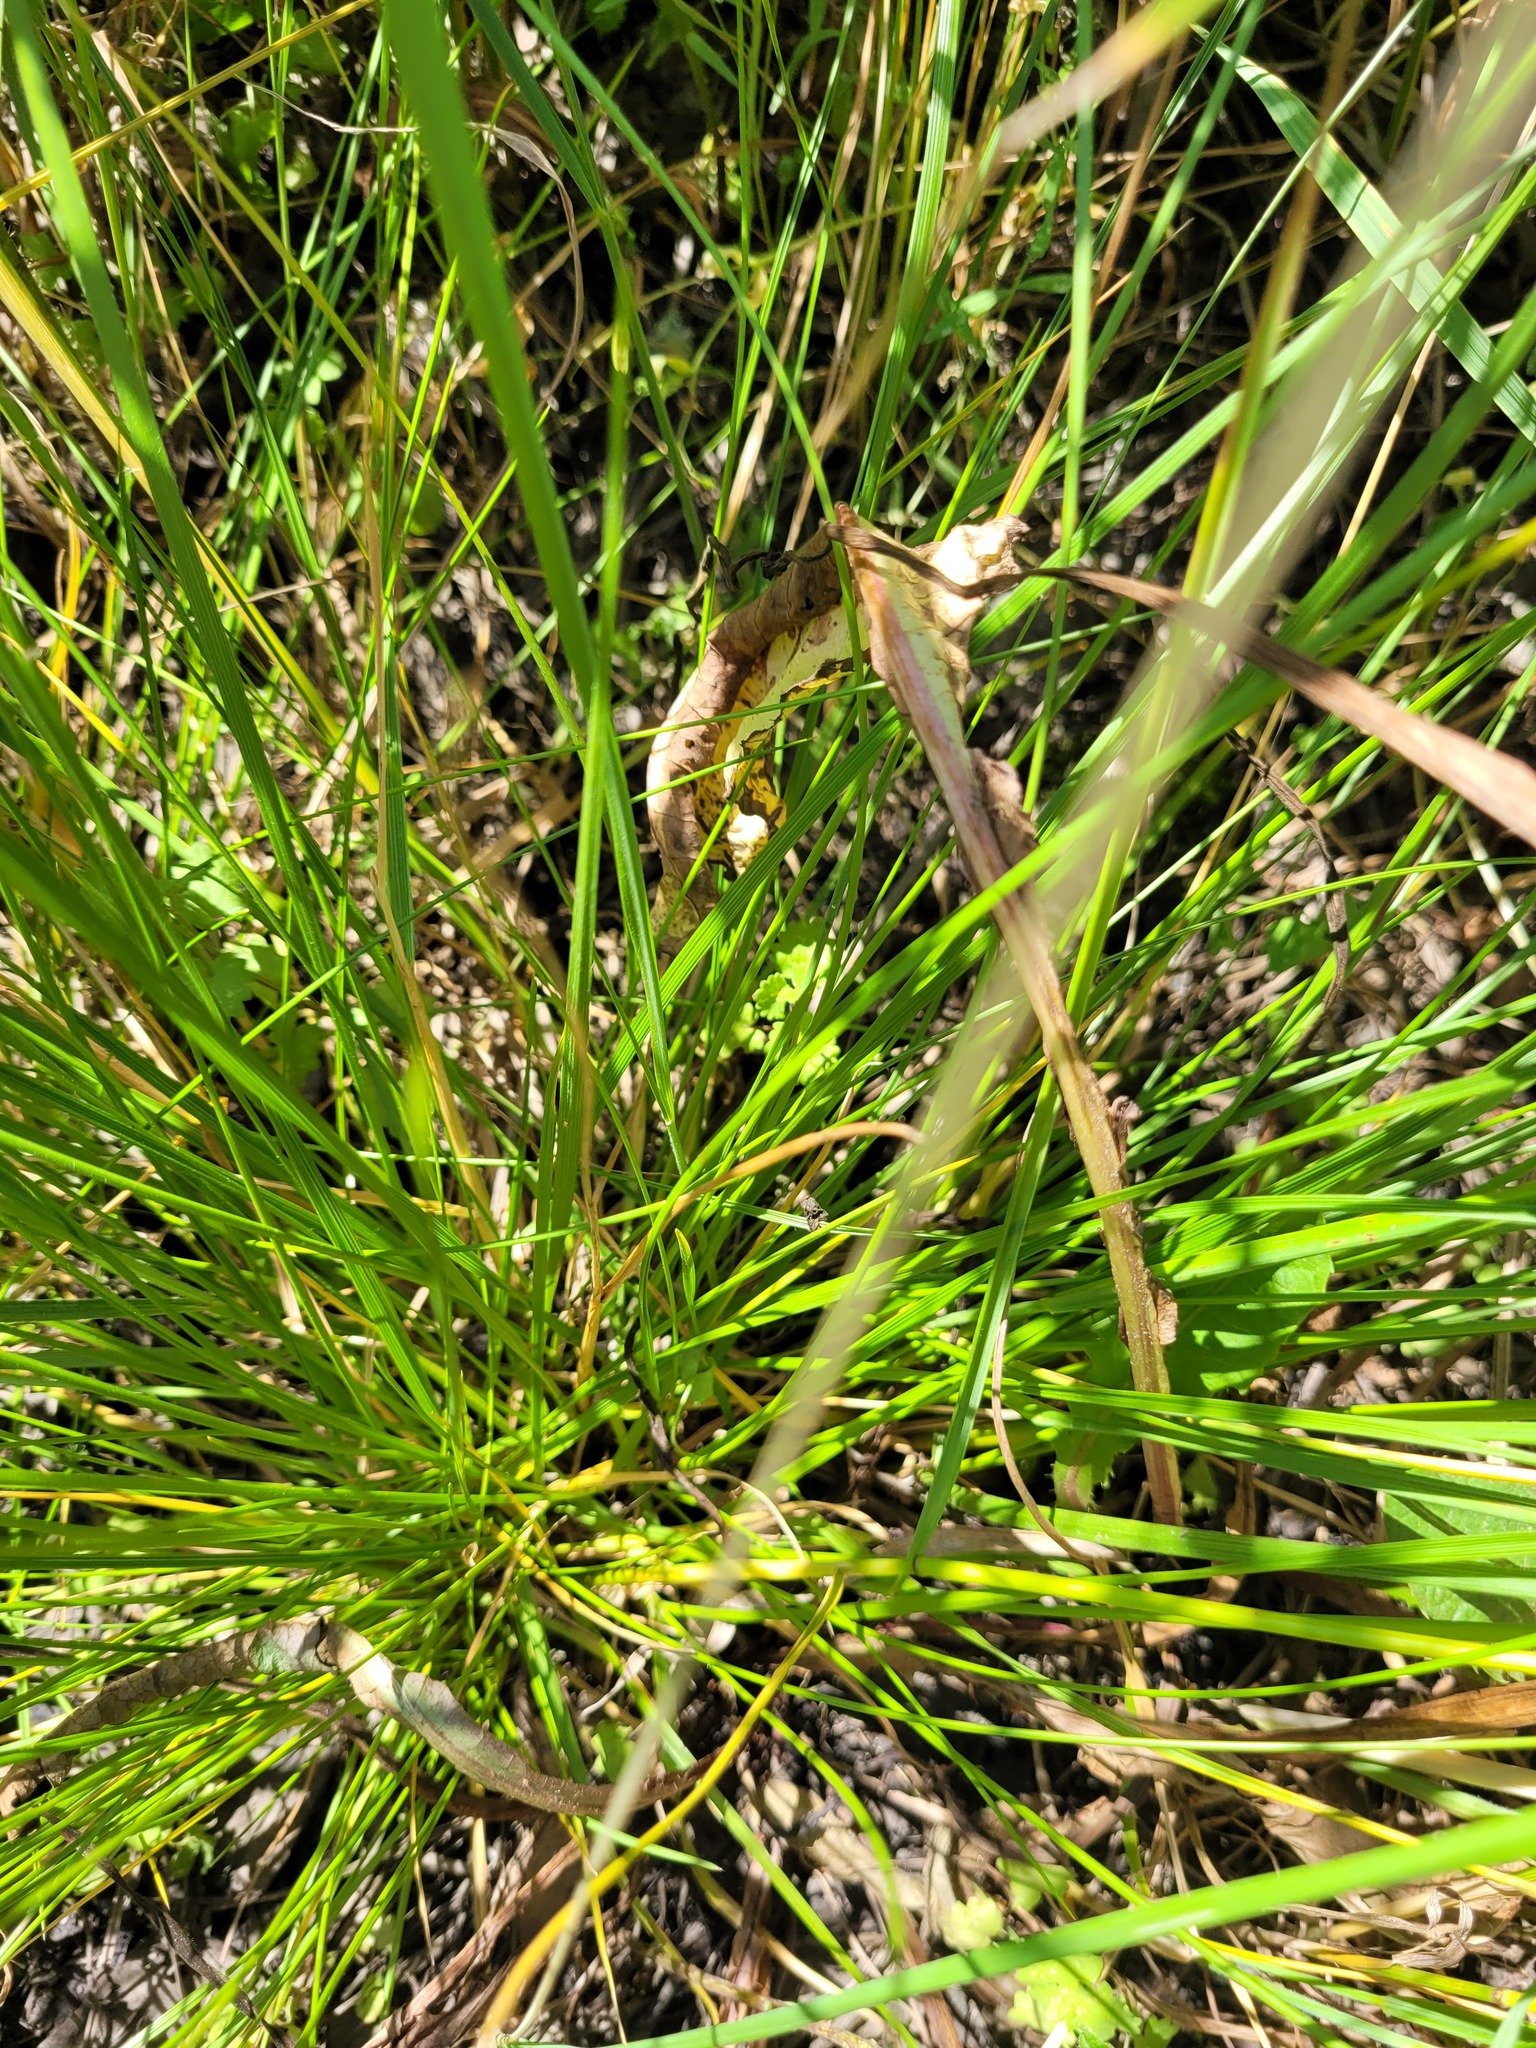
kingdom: Plantae
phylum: Tracheophyta
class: Liliopsida
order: Poales
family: Poaceae
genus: Deschampsia
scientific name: Deschampsia cespitosa
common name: Tufted hair-grass
